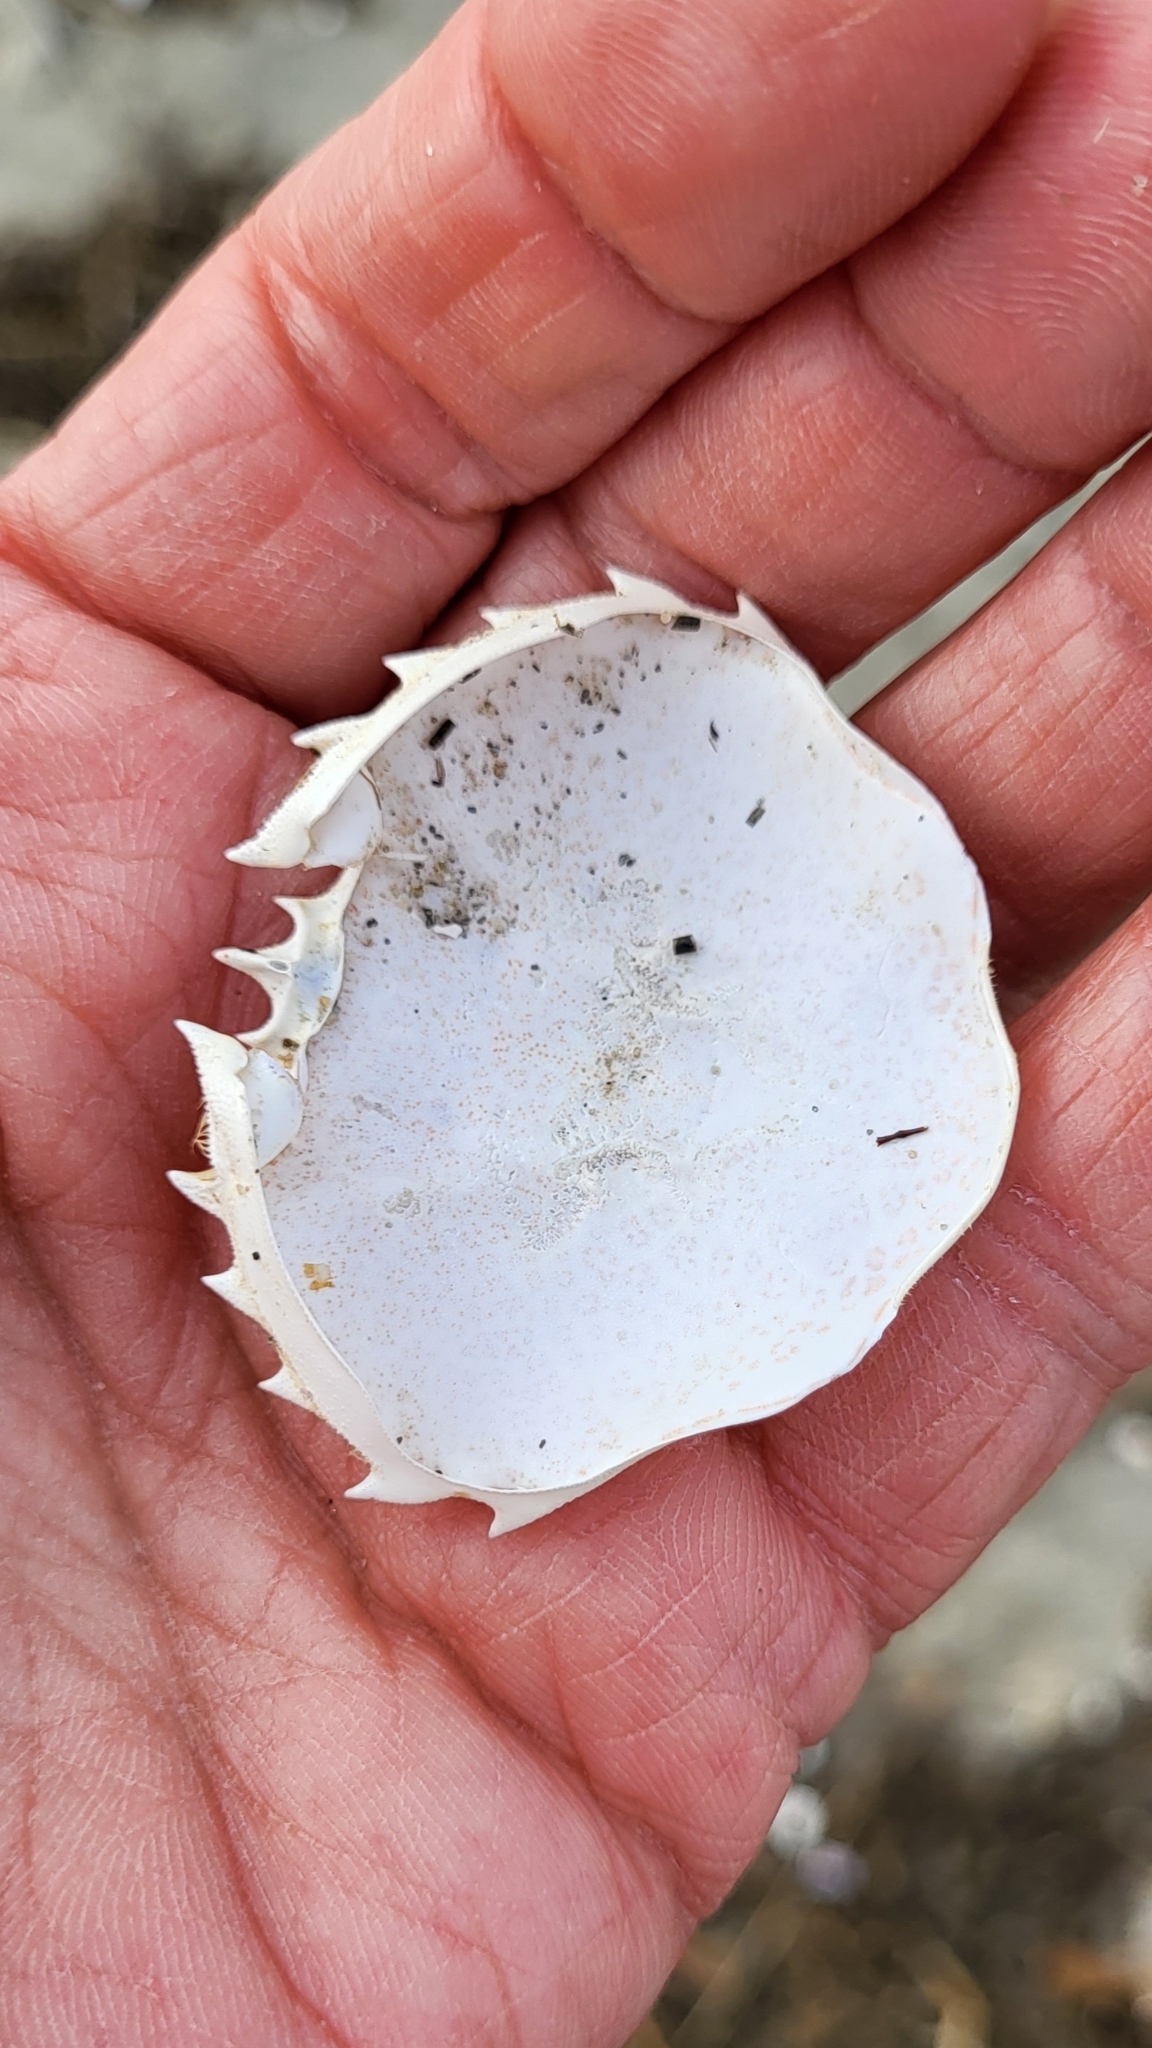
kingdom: Animalia
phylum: Arthropoda
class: Malacostraca
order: Decapoda
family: Ovalipidae
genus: Ovalipes
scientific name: Ovalipes ocellatus
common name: Lady crab
